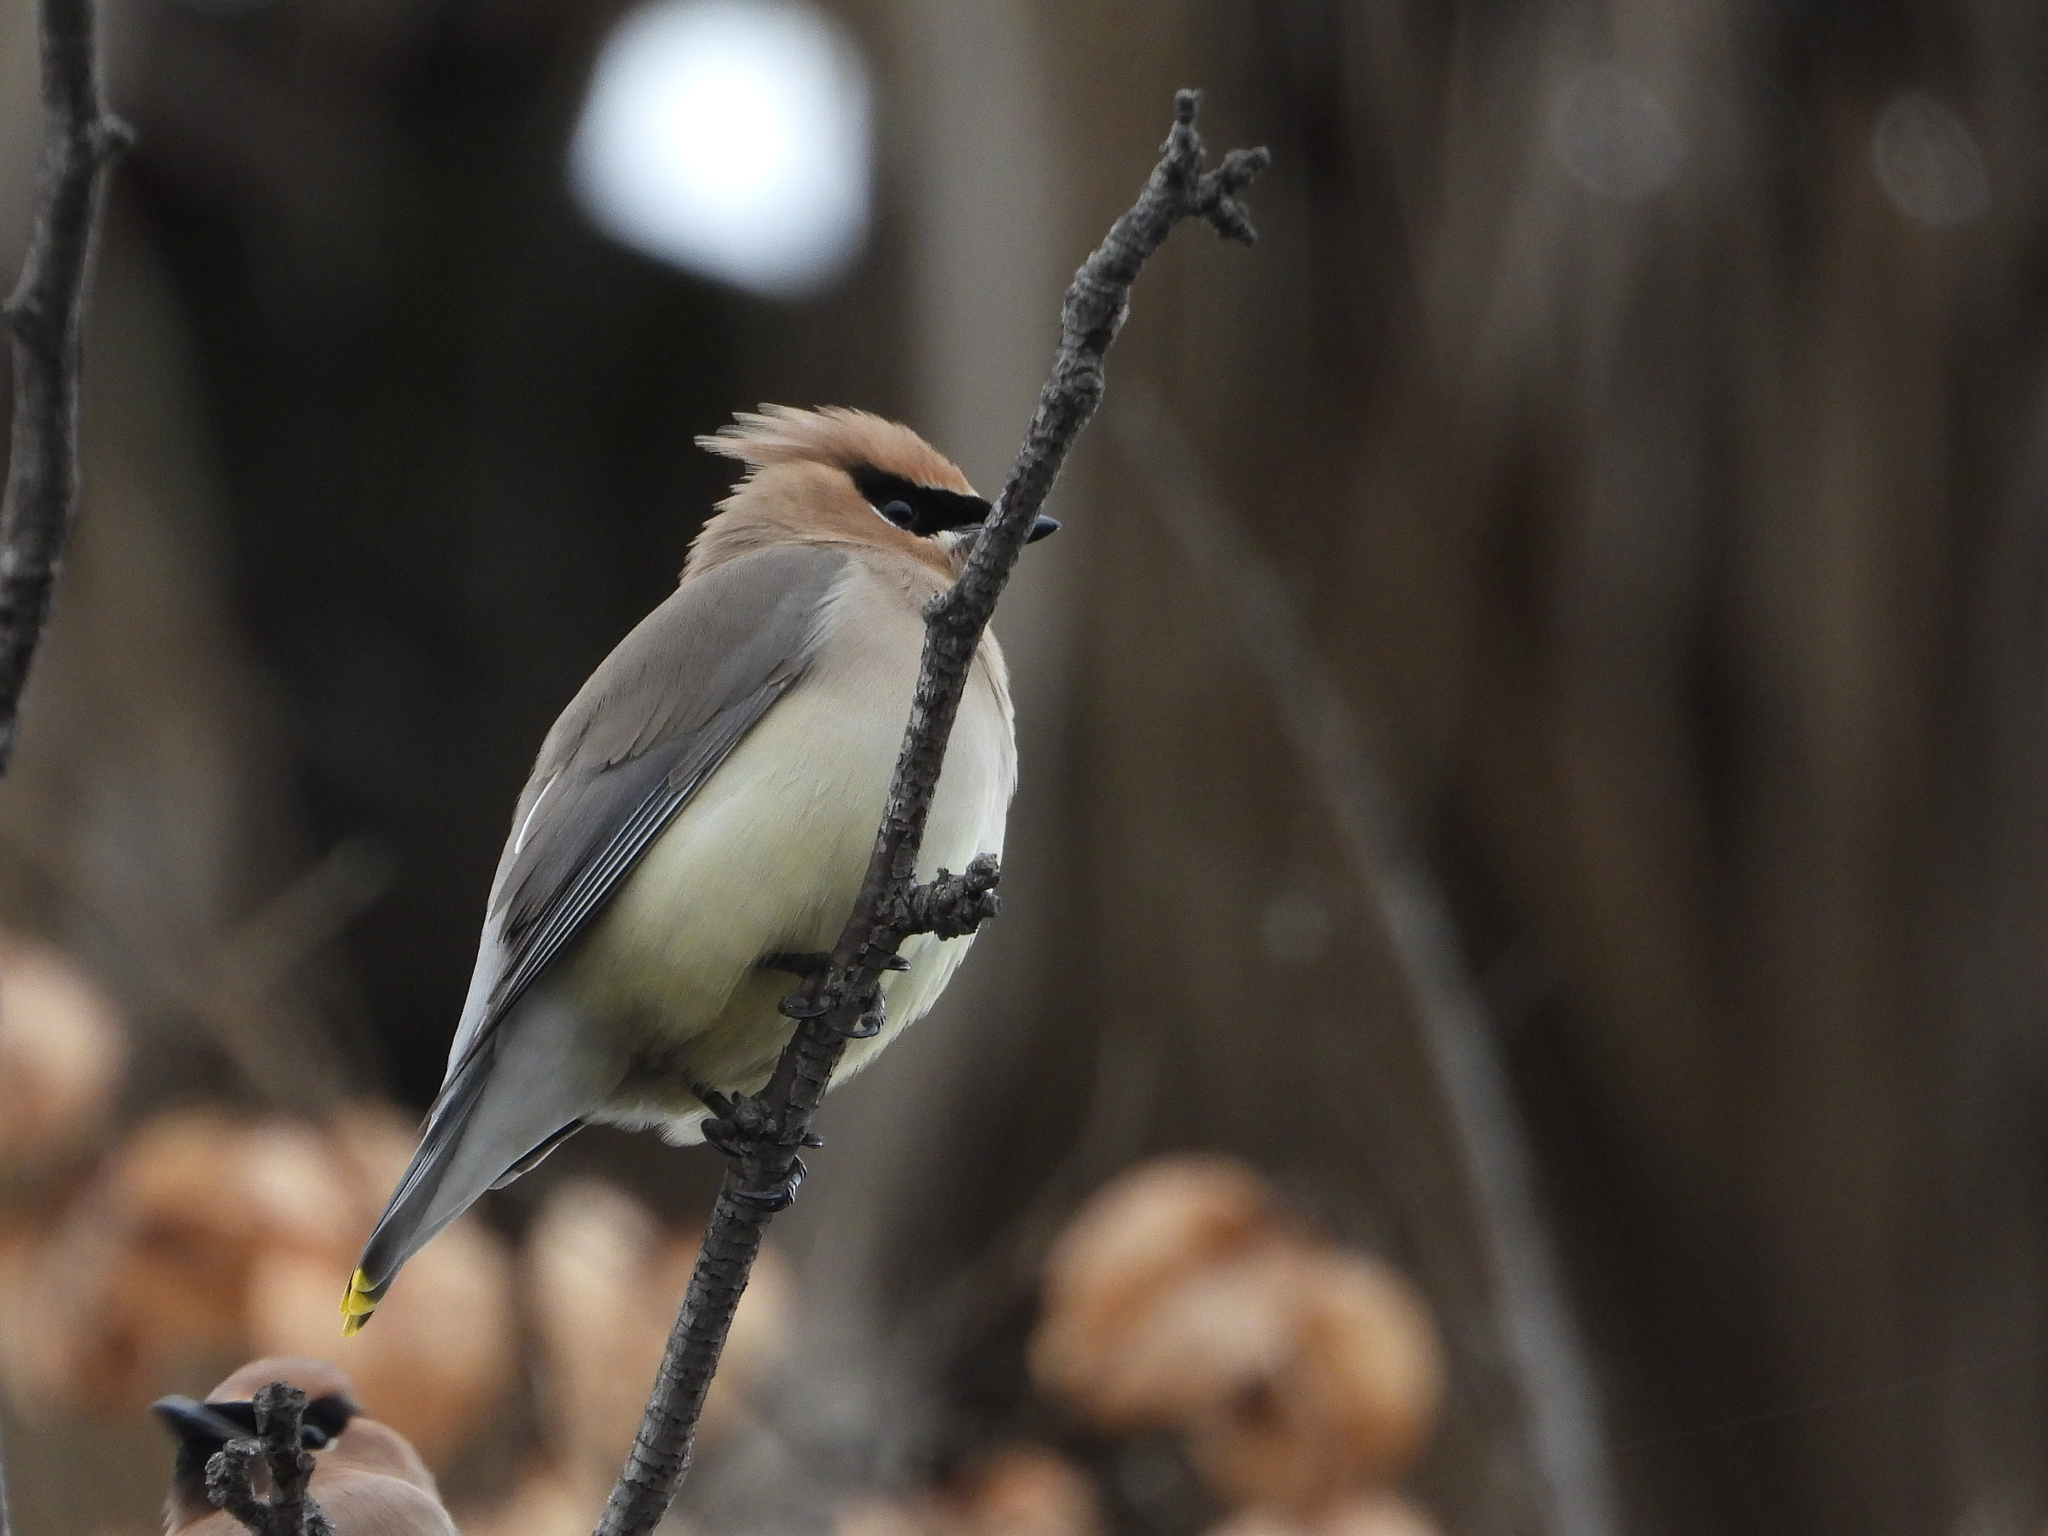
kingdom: Animalia
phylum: Chordata
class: Aves
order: Passeriformes
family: Bombycillidae
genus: Bombycilla
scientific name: Bombycilla cedrorum
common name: Cedar waxwing
